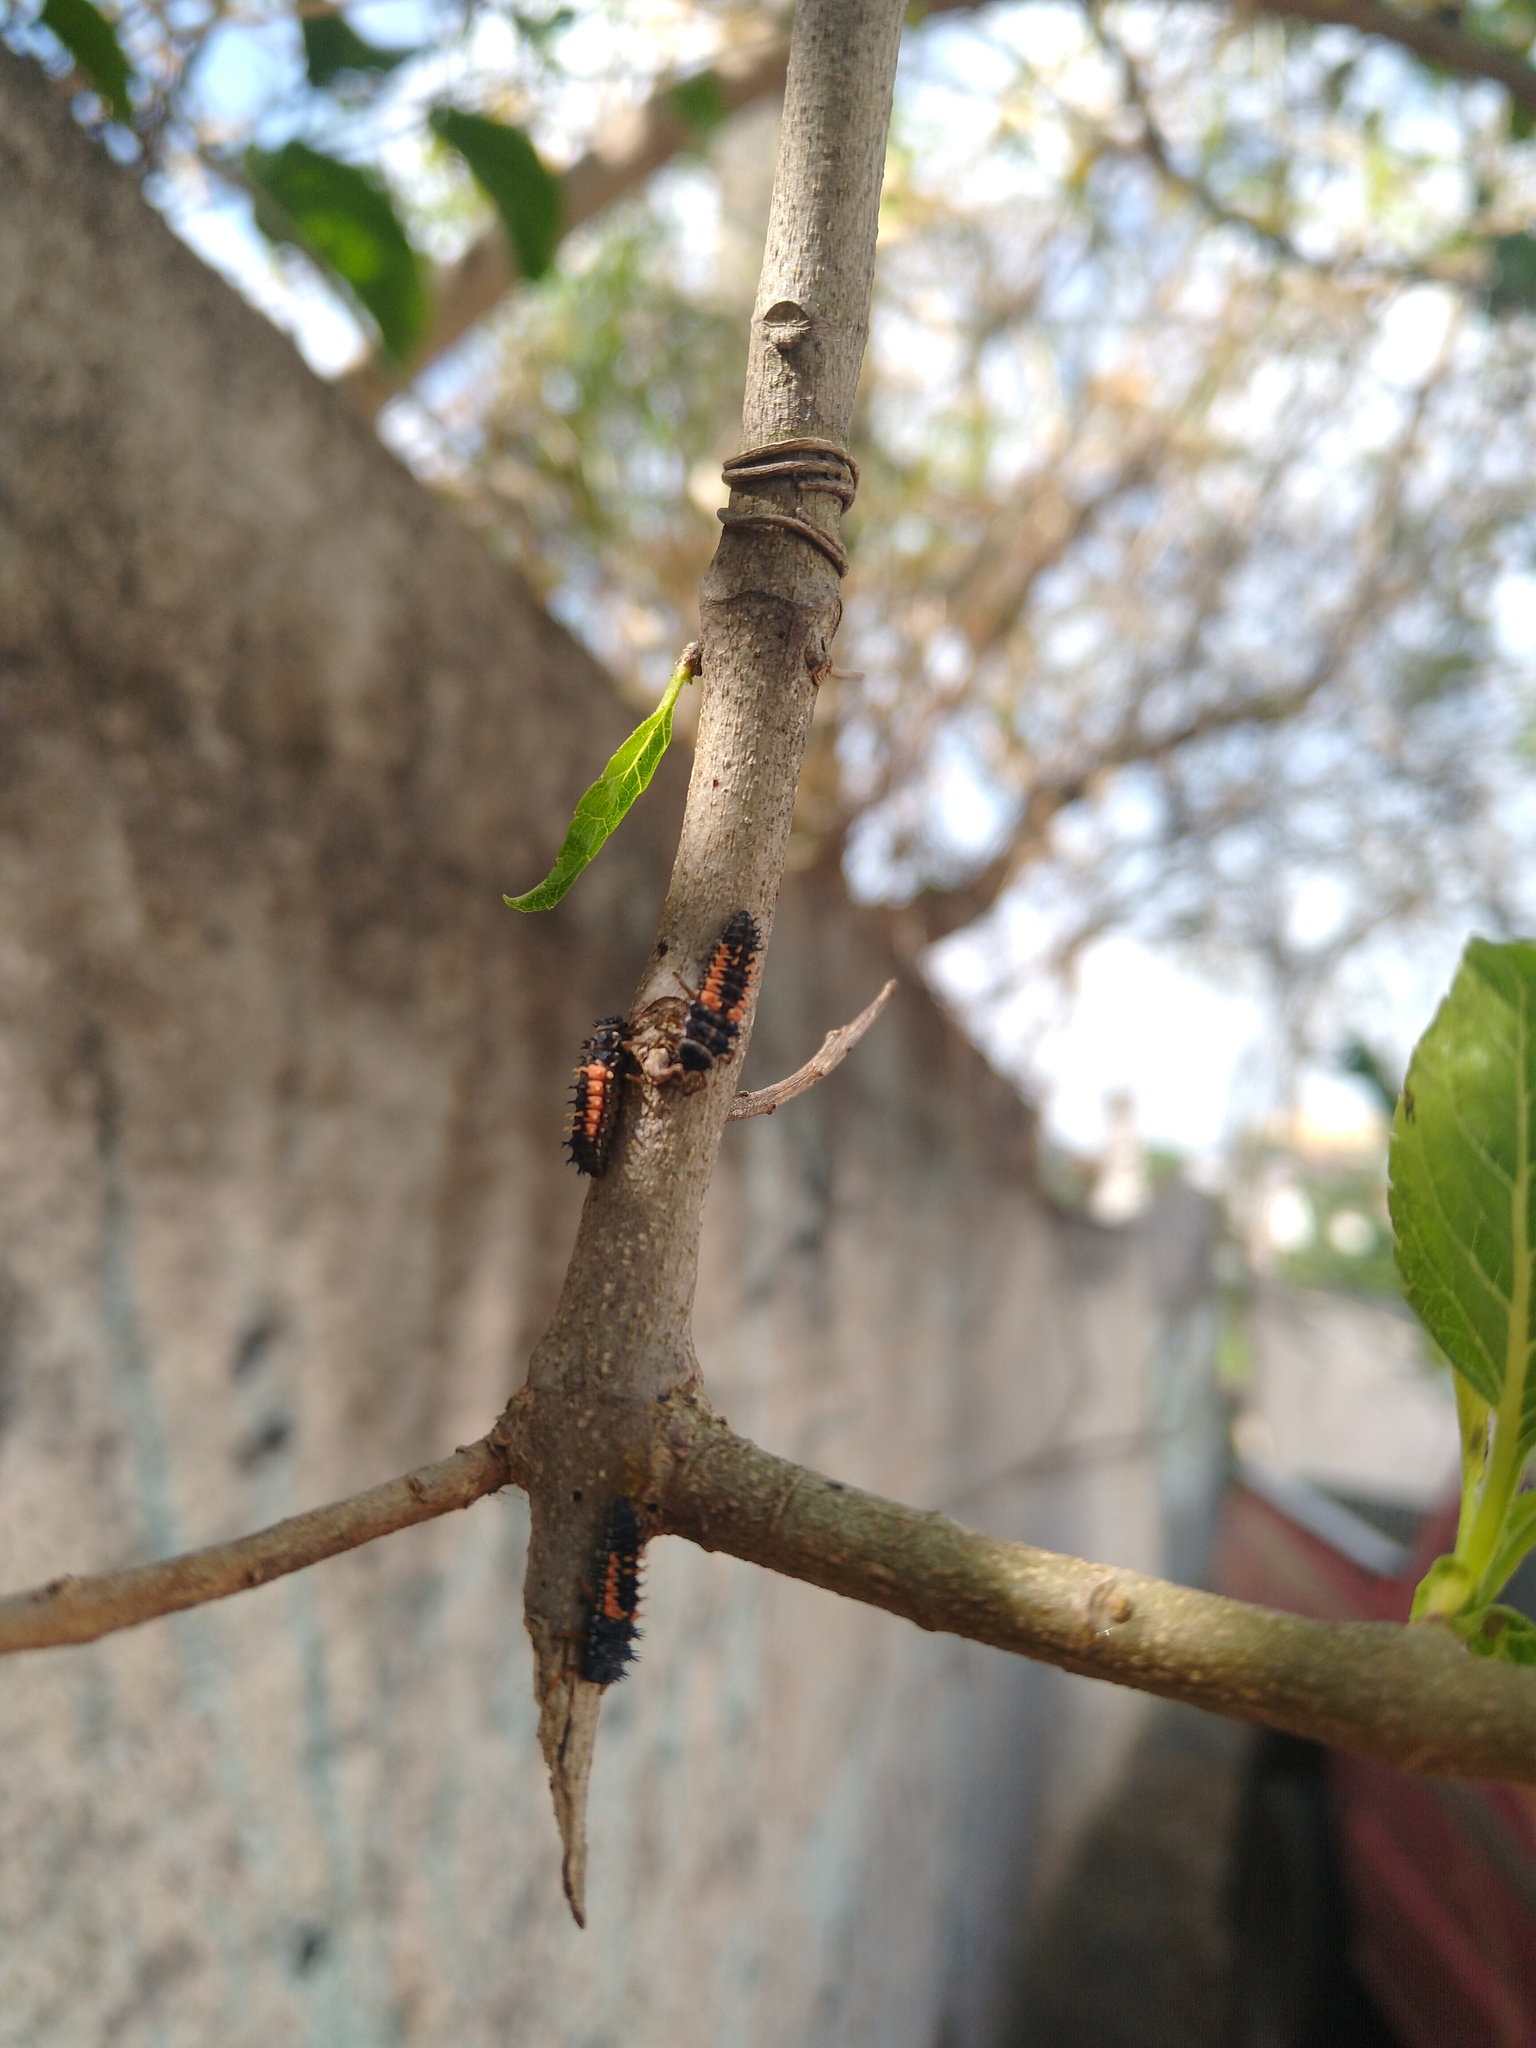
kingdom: Animalia
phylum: Arthropoda
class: Insecta
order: Coleoptera
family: Coccinellidae
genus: Harmonia
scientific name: Harmonia axyridis
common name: Harlequin ladybird
